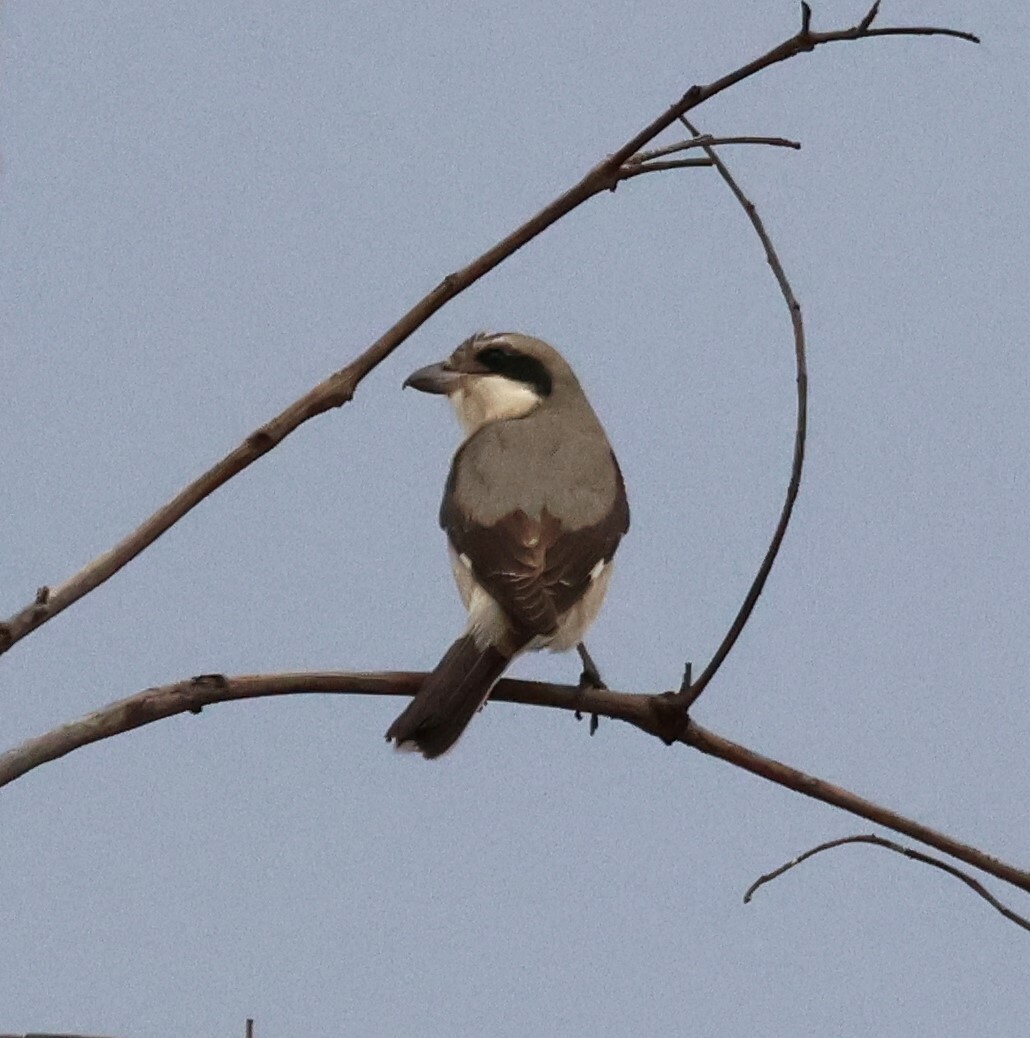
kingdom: Animalia
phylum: Chordata
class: Aves
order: Passeriformes
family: Laniidae
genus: Lanius
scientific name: Lanius minor
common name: Lesser grey shrike
